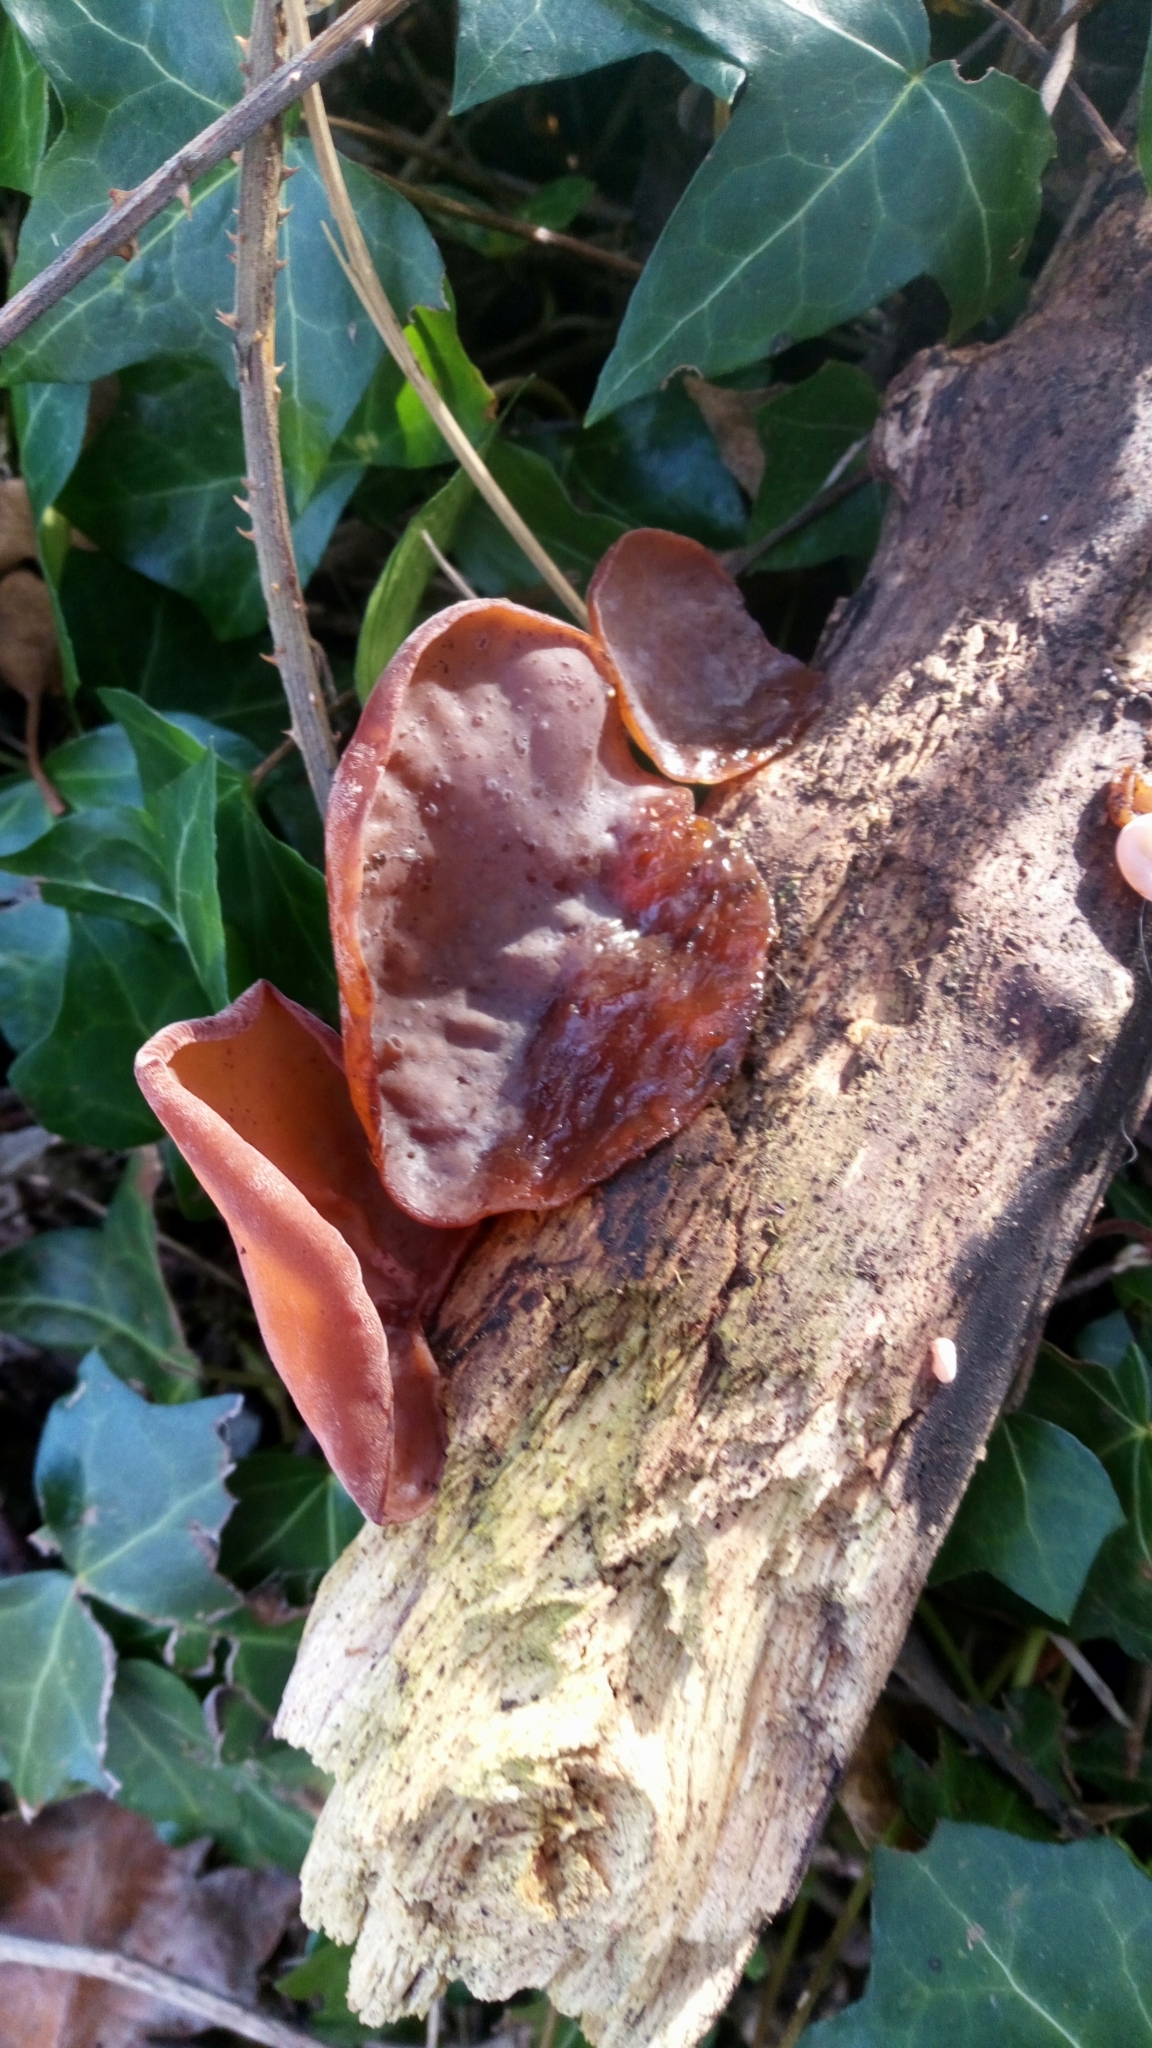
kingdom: Fungi
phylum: Basidiomycota
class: Agaricomycetes
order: Auriculariales
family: Auriculariaceae
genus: Auricularia
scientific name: Auricularia auricula-judae
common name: Jelly ear
